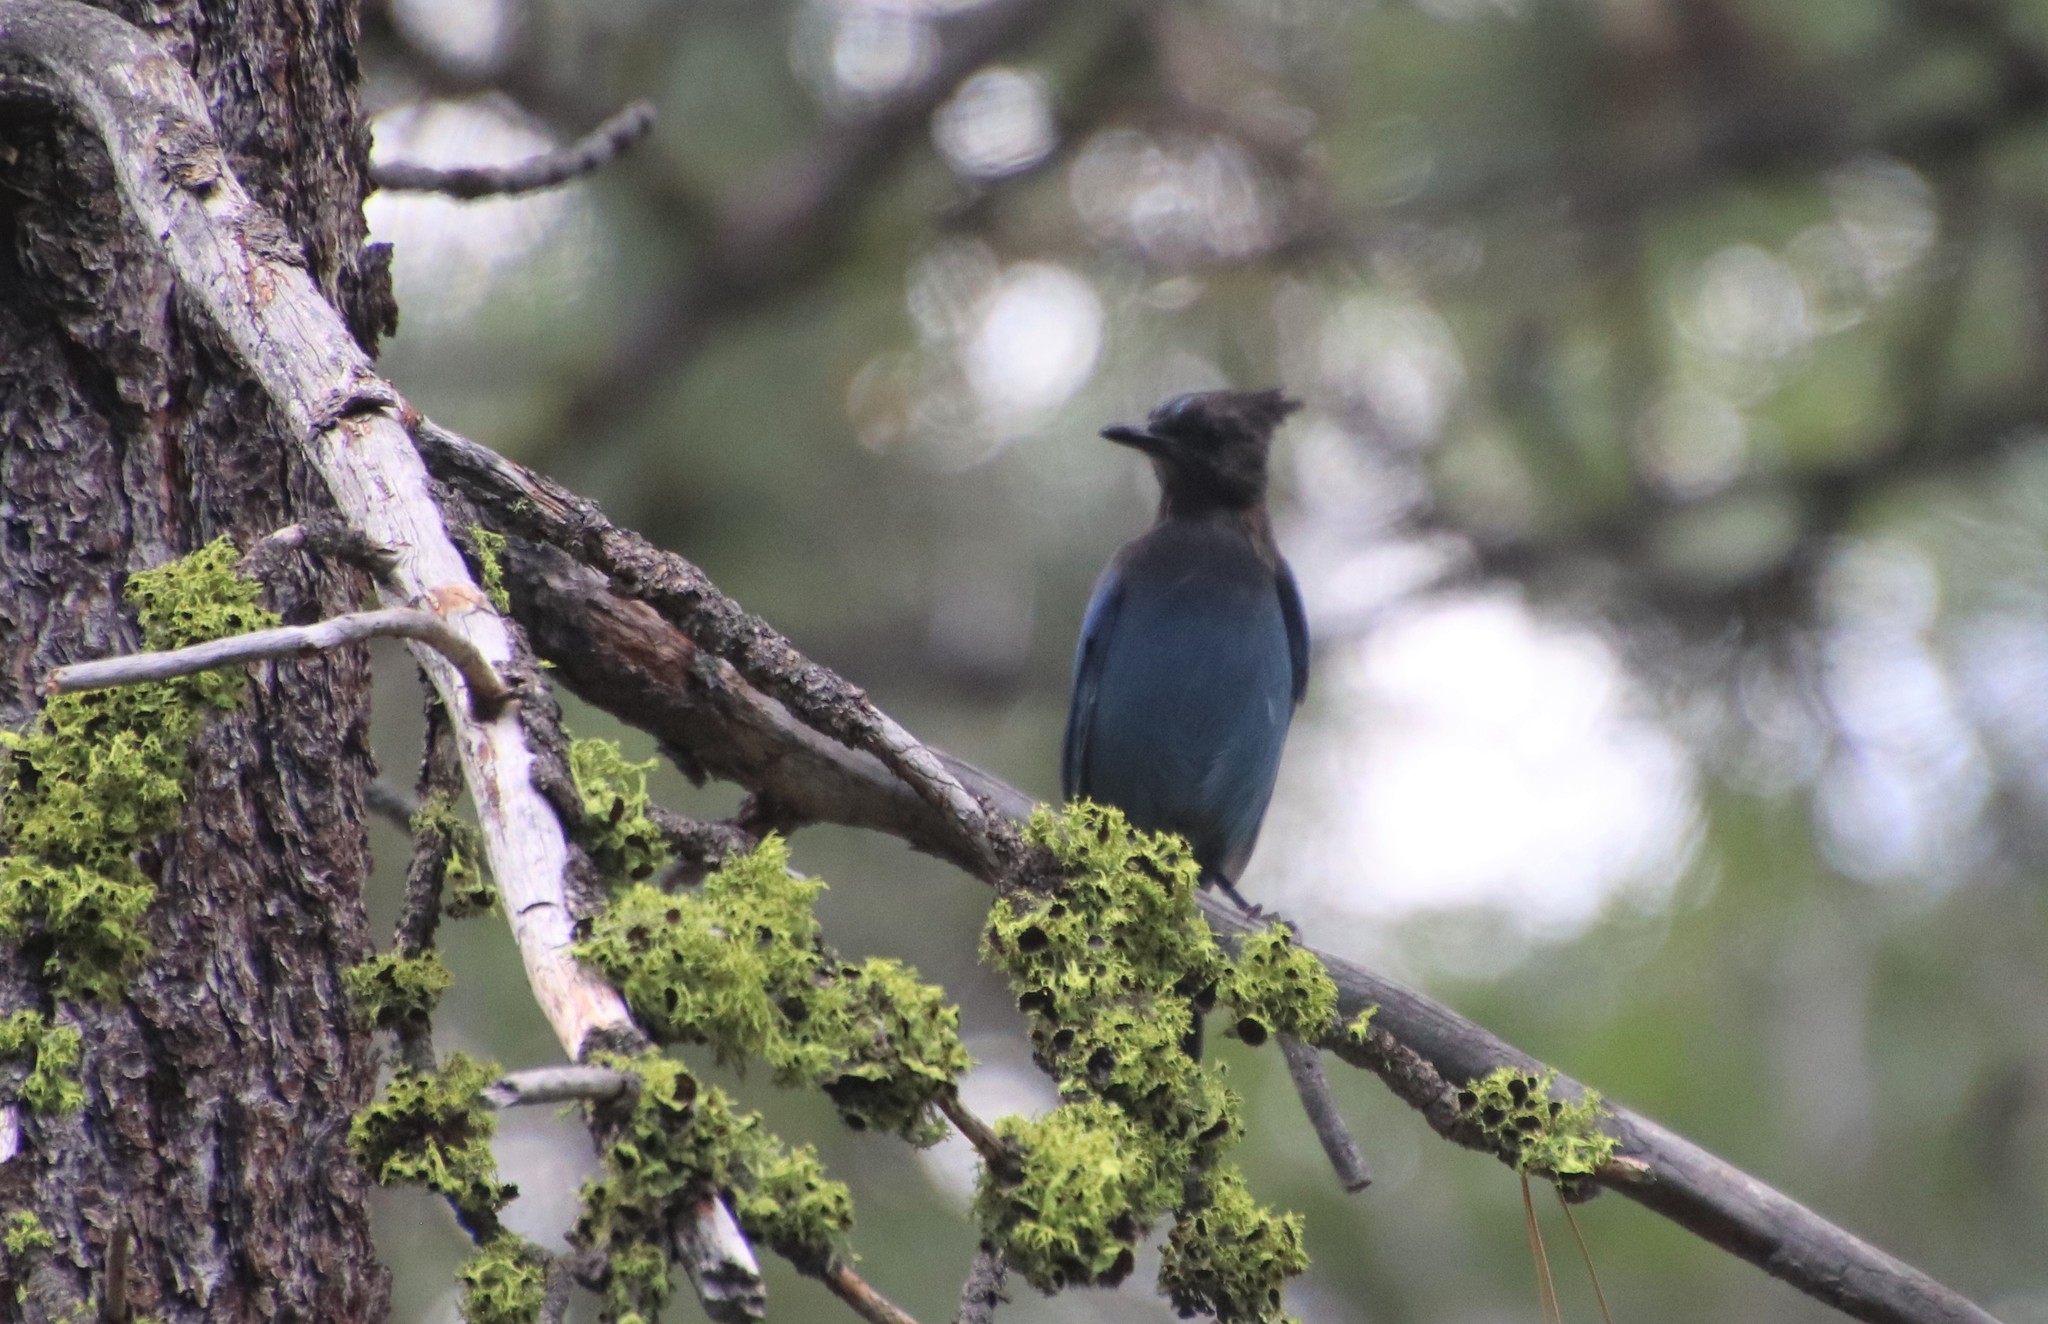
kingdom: Animalia
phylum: Chordata
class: Aves
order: Passeriformes
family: Corvidae
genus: Cyanocitta
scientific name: Cyanocitta stelleri
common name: Steller's jay
